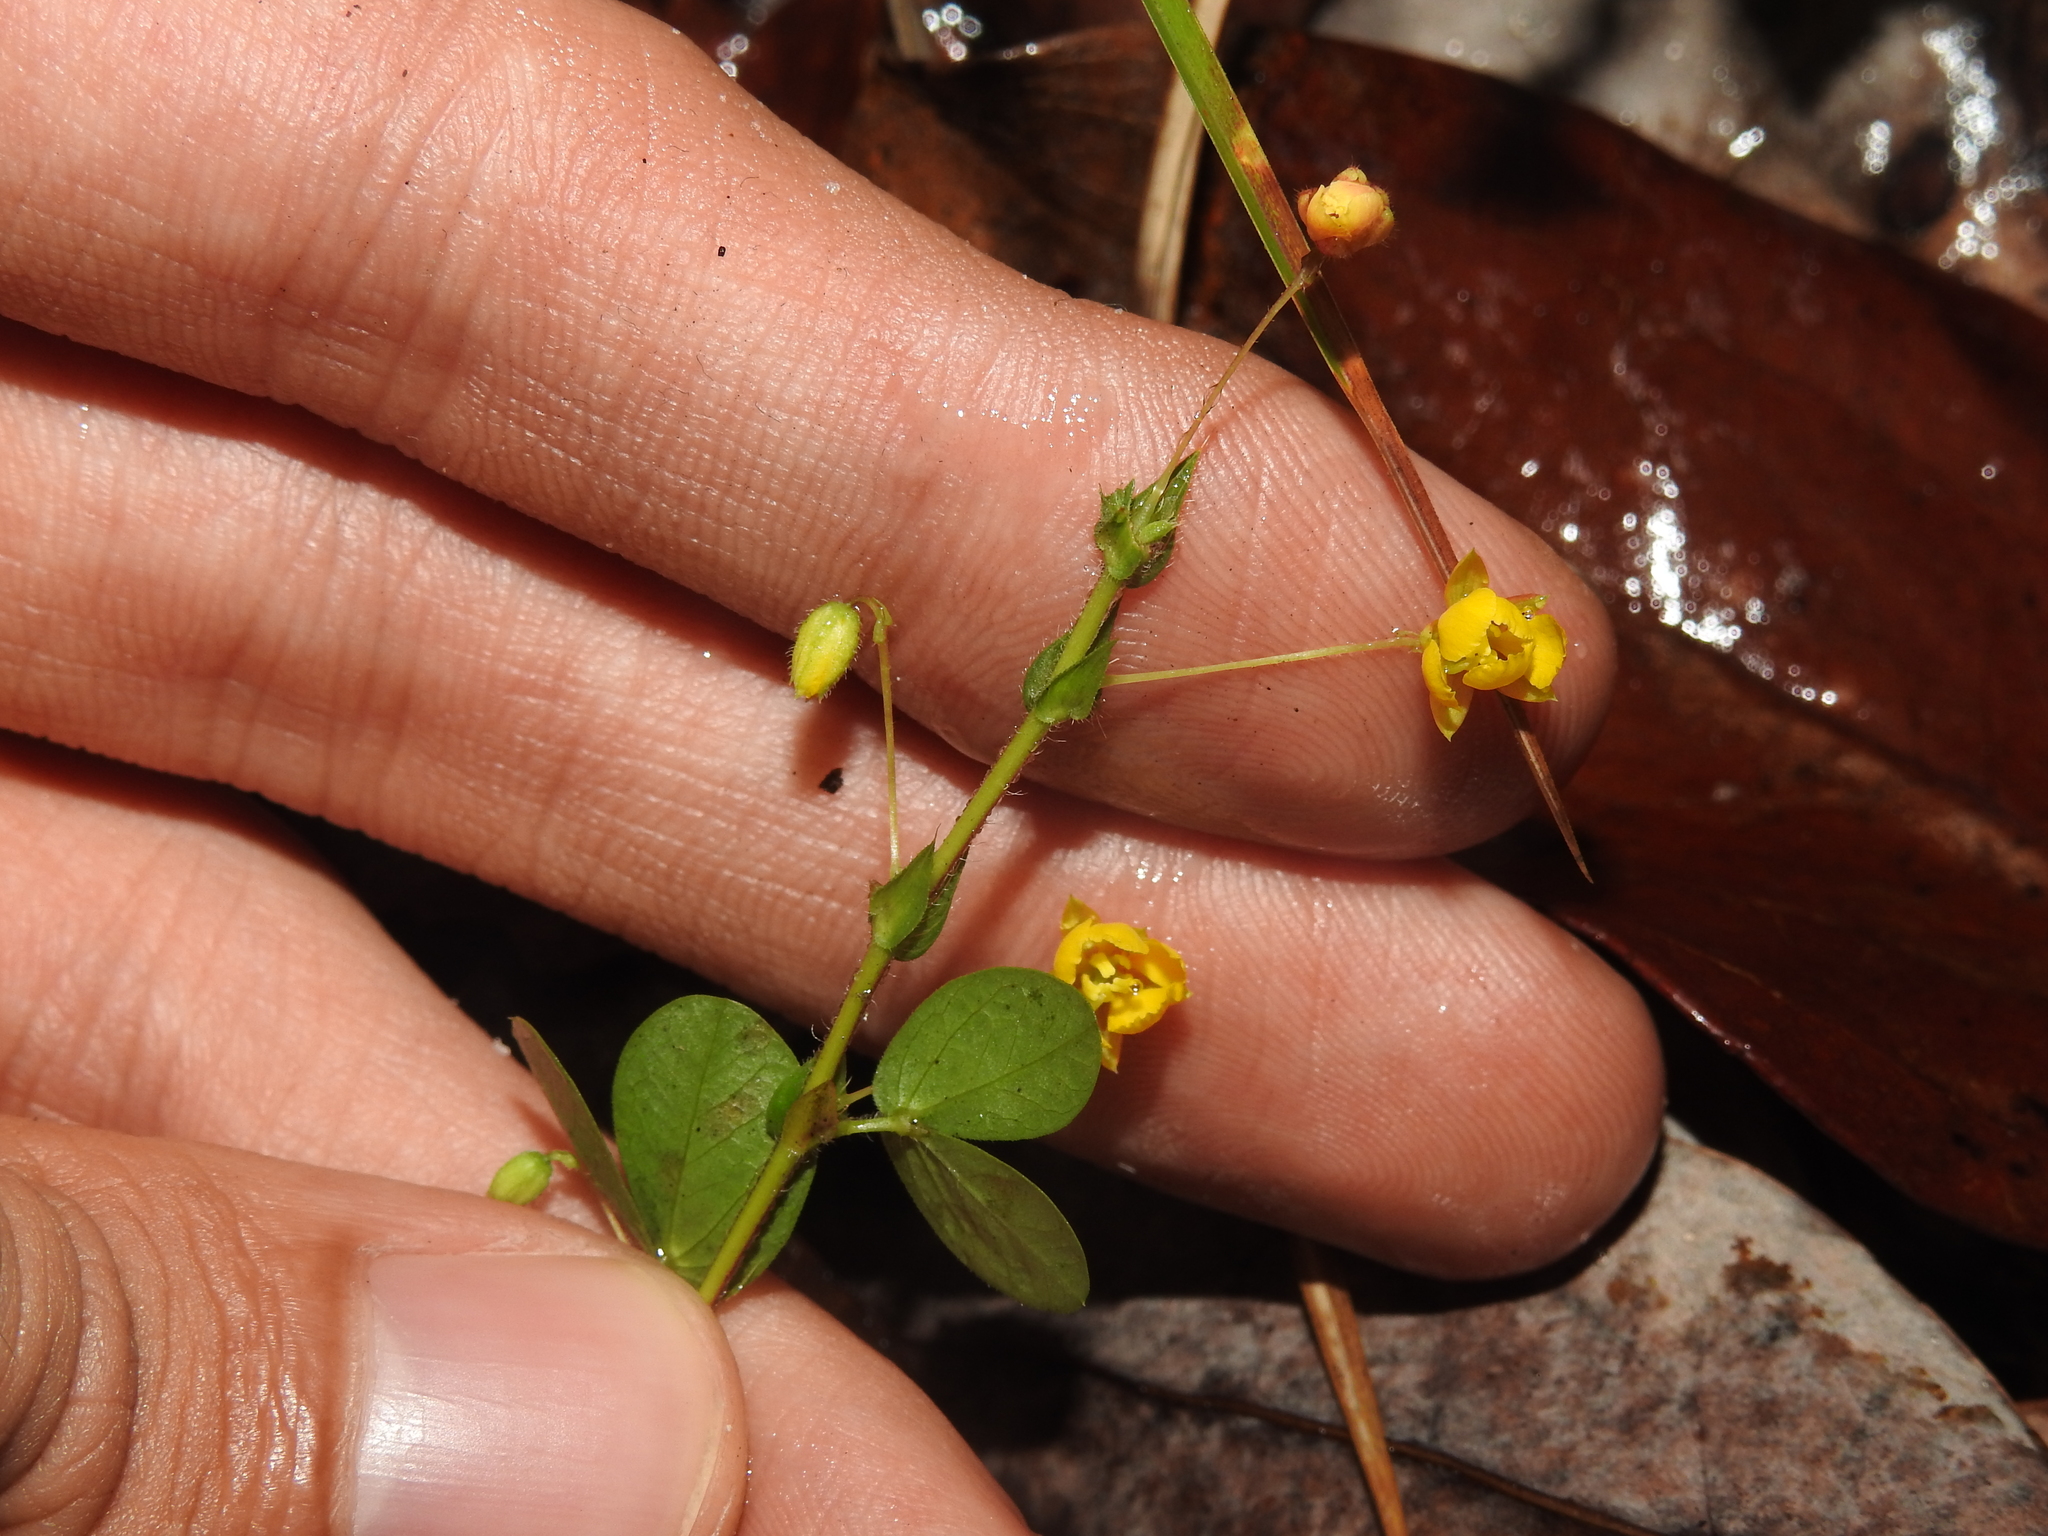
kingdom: Plantae
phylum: Tracheophyta
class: Magnoliopsida
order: Fabales
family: Fabaceae
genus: Chamaecrista
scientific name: Chamaecrista rotundifolia
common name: Round-leaf cassia
